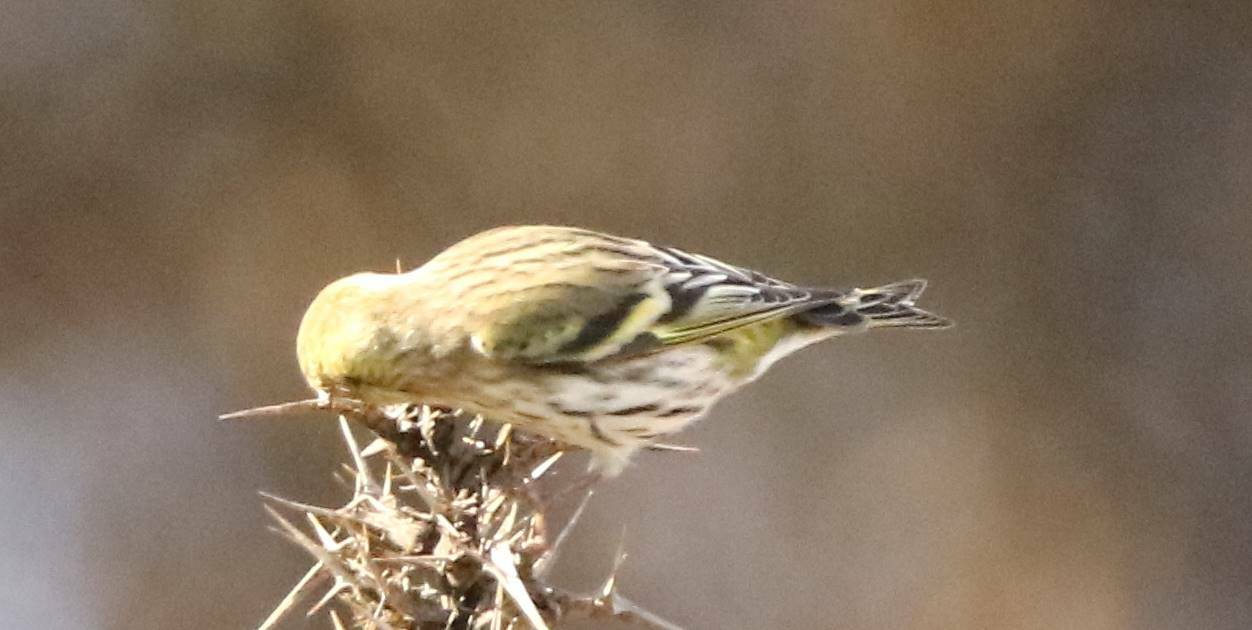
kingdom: Animalia
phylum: Chordata
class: Aves
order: Passeriformes
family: Fringillidae
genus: Spinus
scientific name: Spinus spinus
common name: Eurasian siskin
